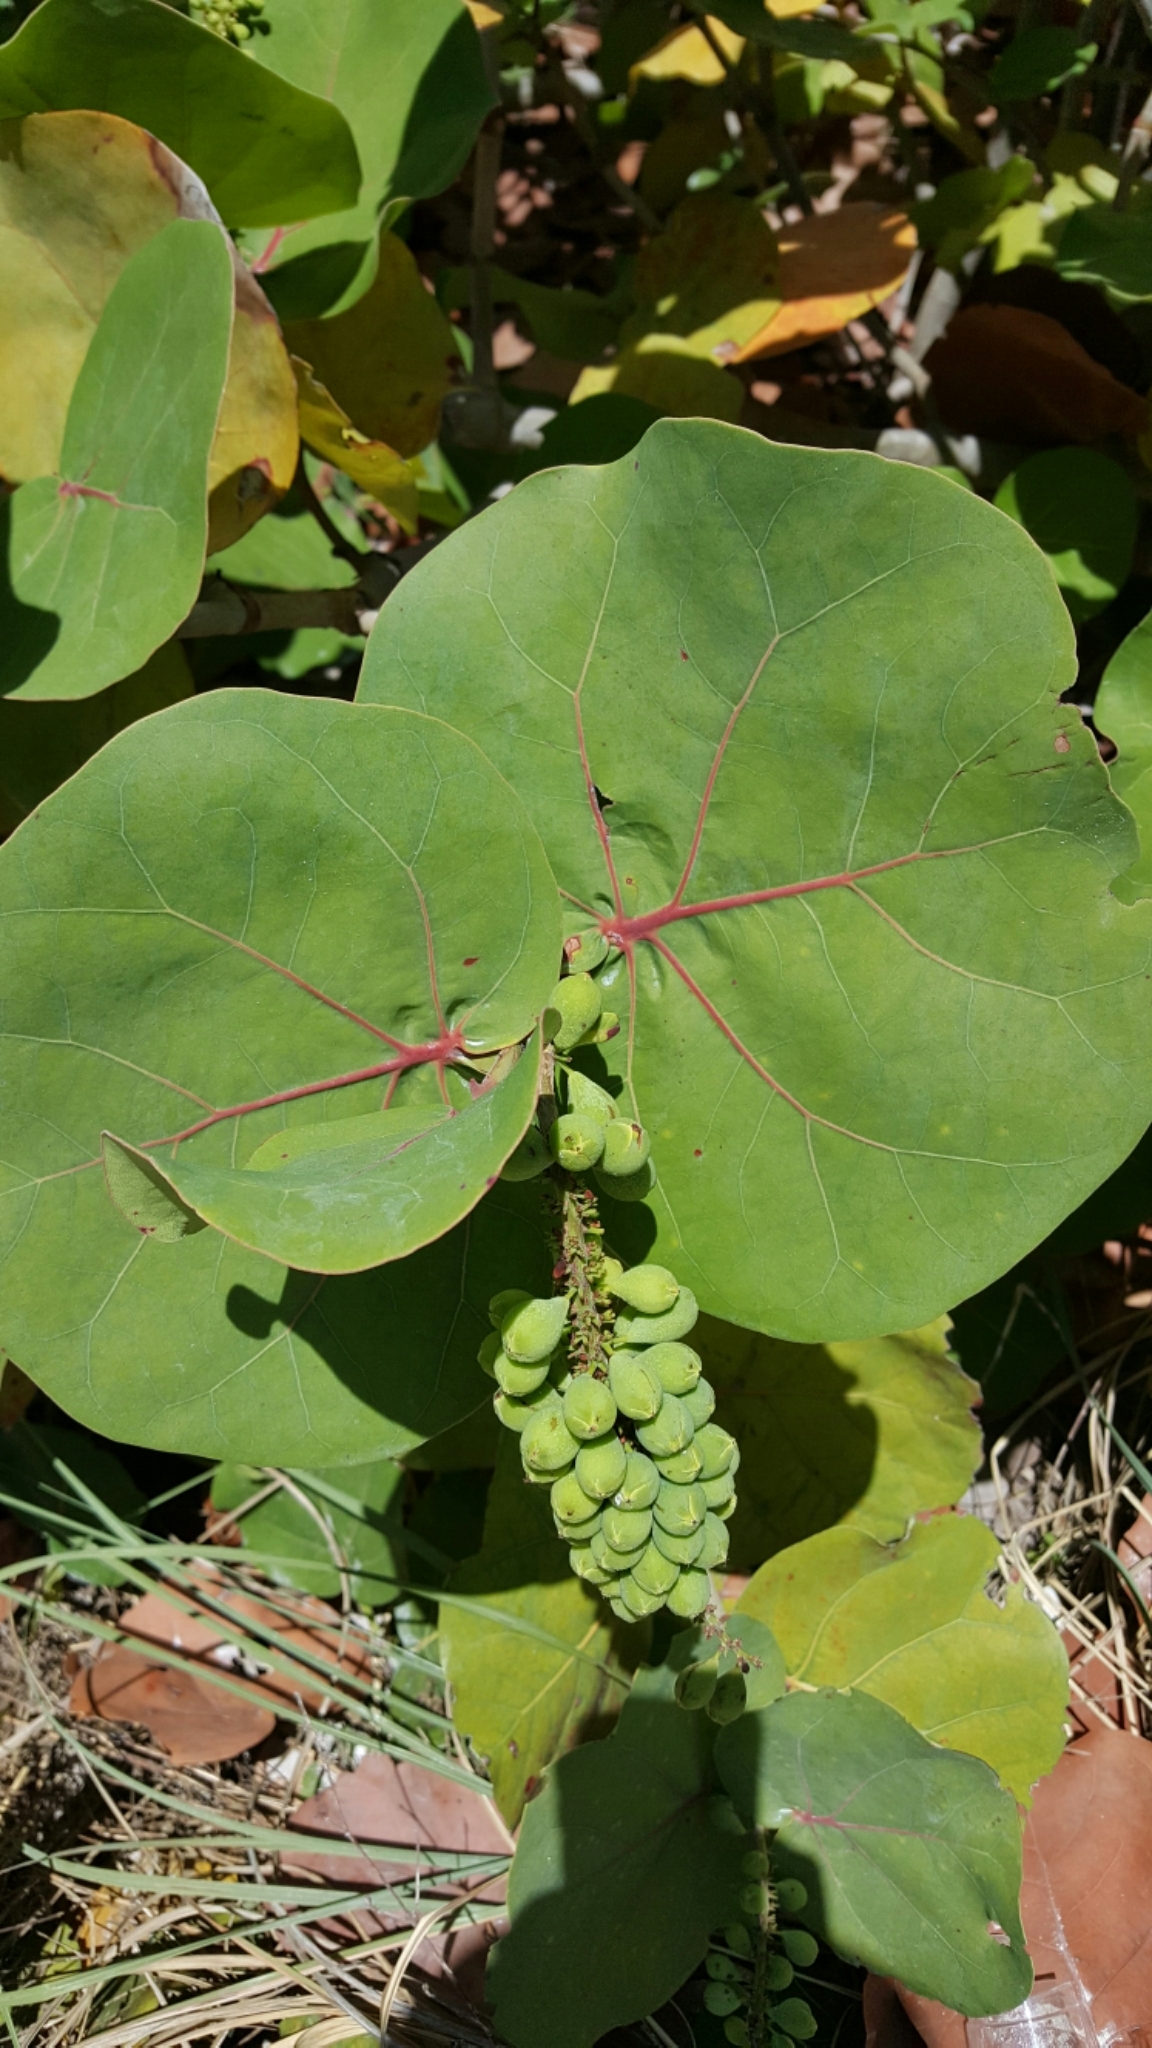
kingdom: Plantae
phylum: Tracheophyta
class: Magnoliopsida
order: Caryophyllales
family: Polygonaceae
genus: Coccoloba
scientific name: Coccoloba uvifera
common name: Seagrape
